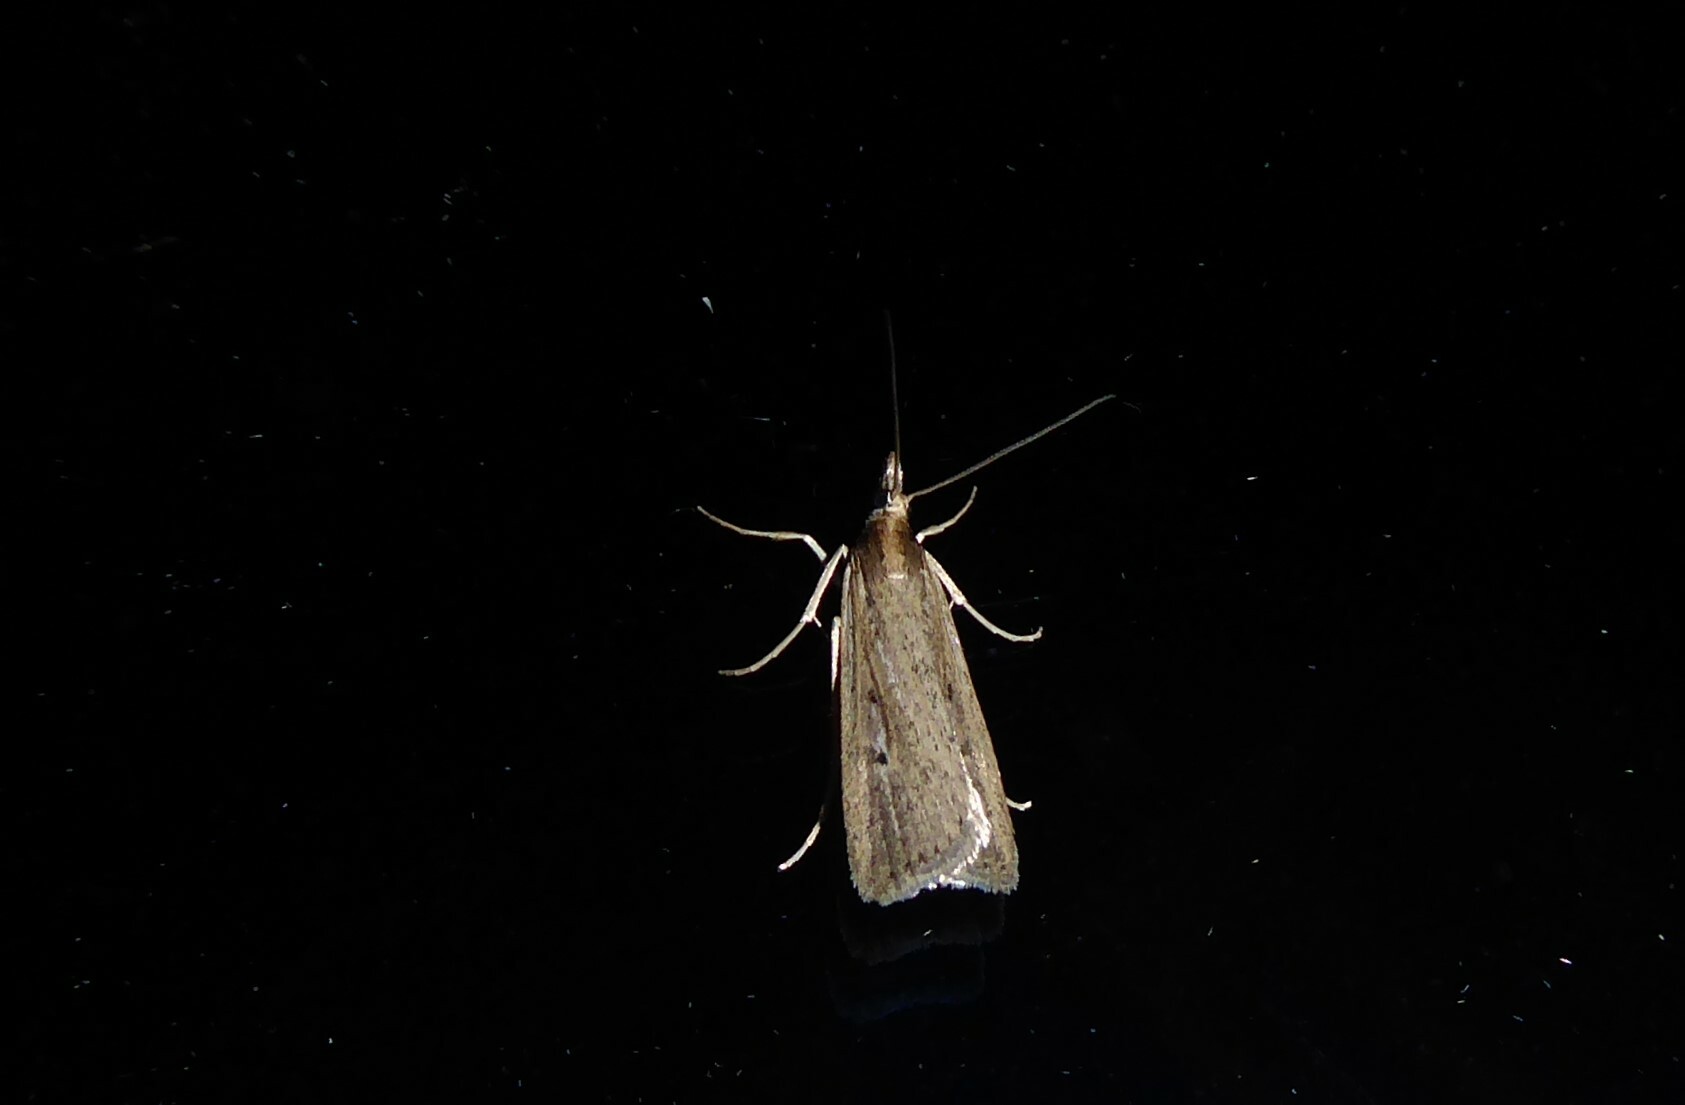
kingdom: Animalia
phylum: Arthropoda
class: Insecta
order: Lepidoptera
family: Crambidae
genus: Eudonia
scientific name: Eudonia sabulosella
